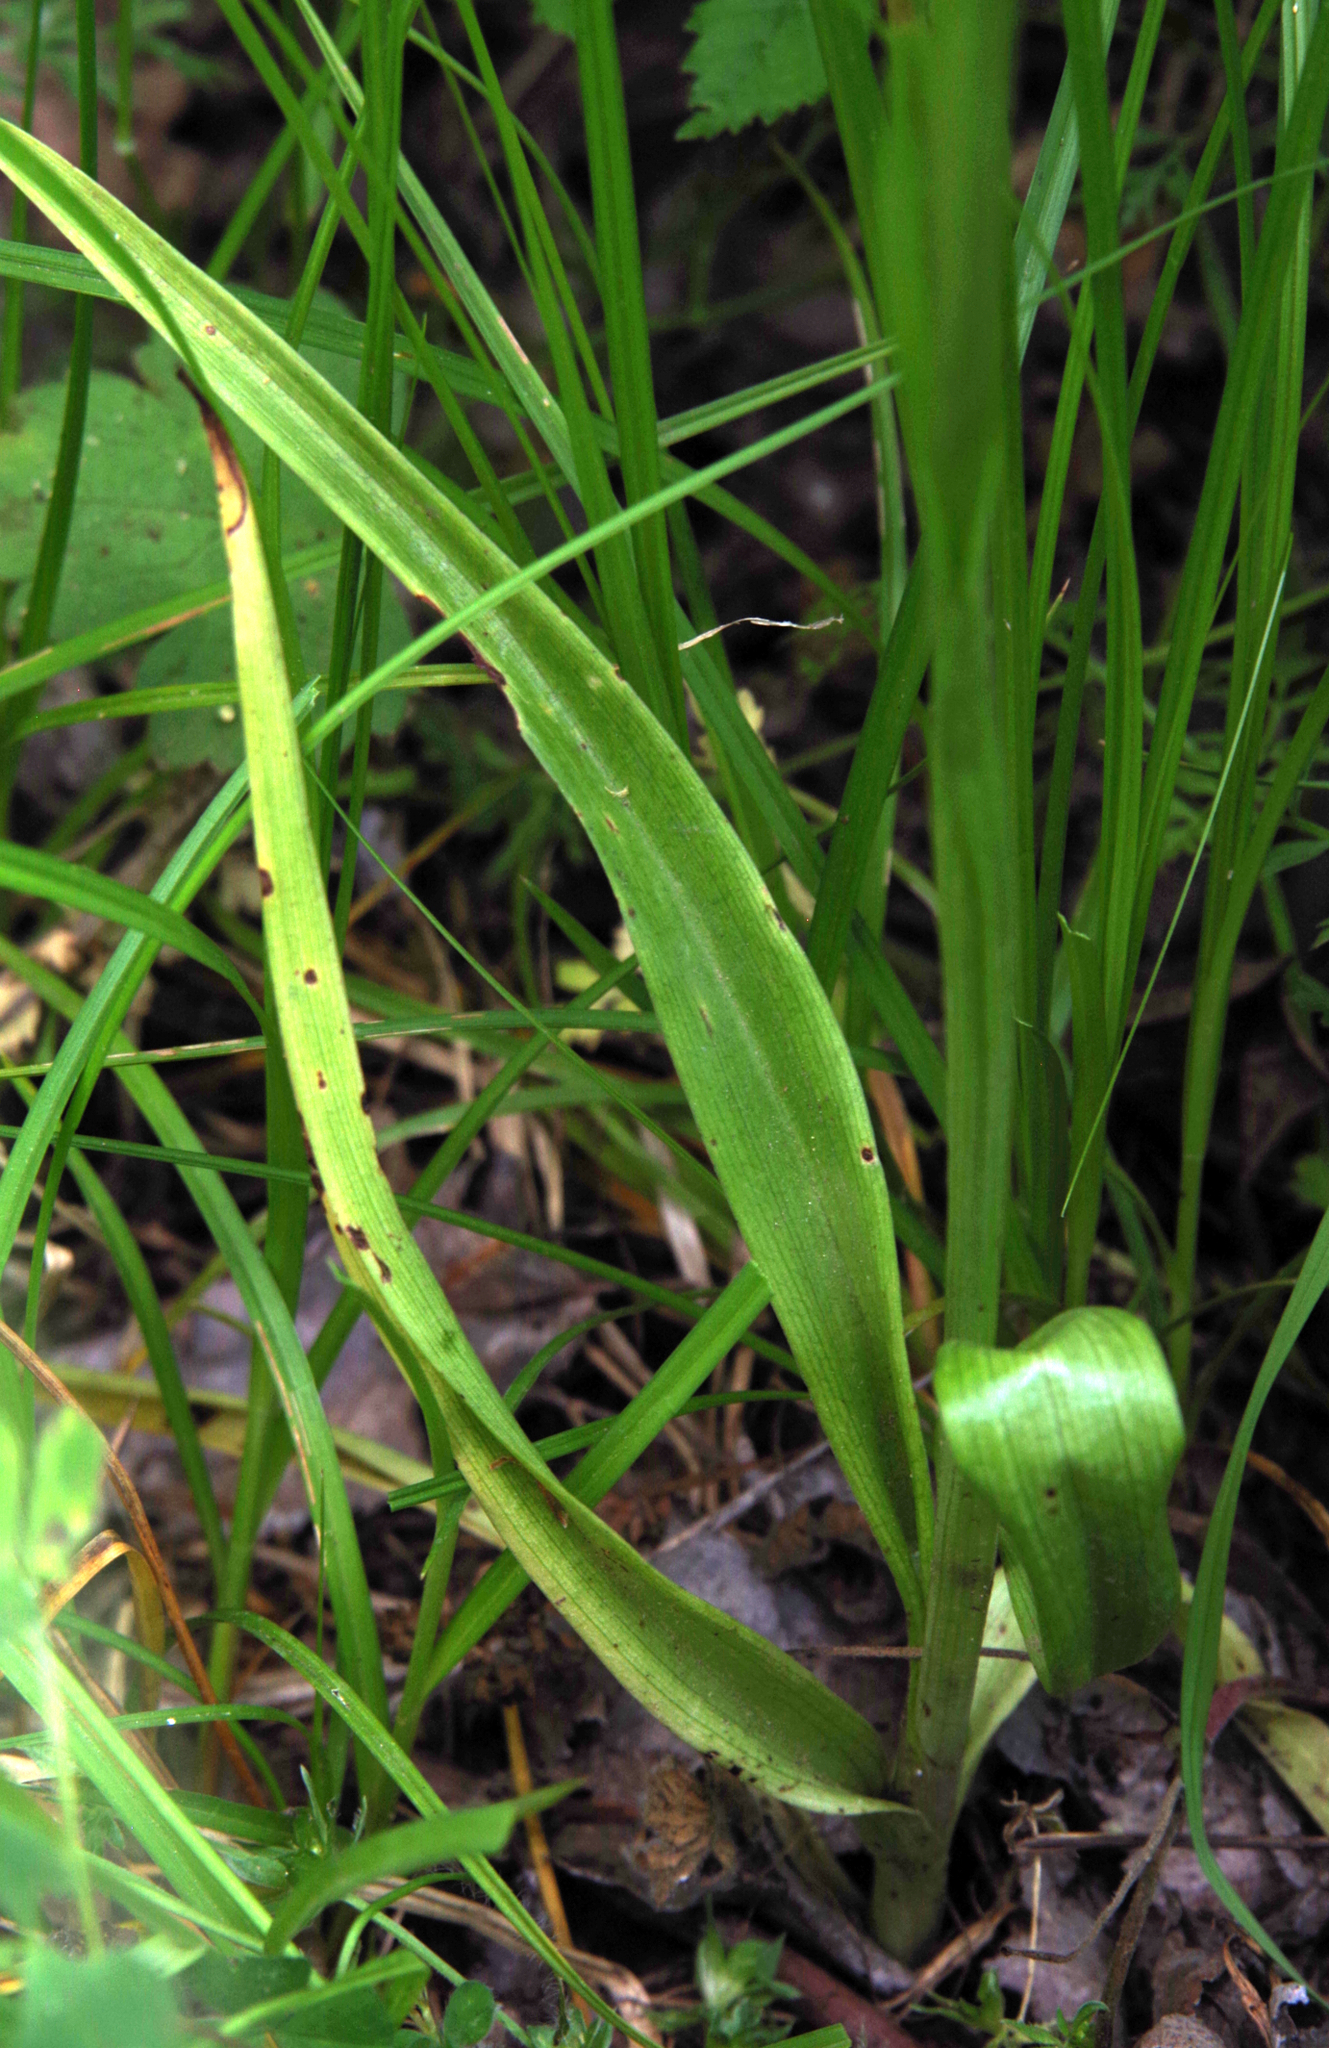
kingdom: Plantae
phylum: Tracheophyta
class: Liliopsida
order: Asparagales
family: Orchidaceae
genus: Anacamptis
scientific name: Anacamptis pyramidalis
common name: Pyramidal orchid
